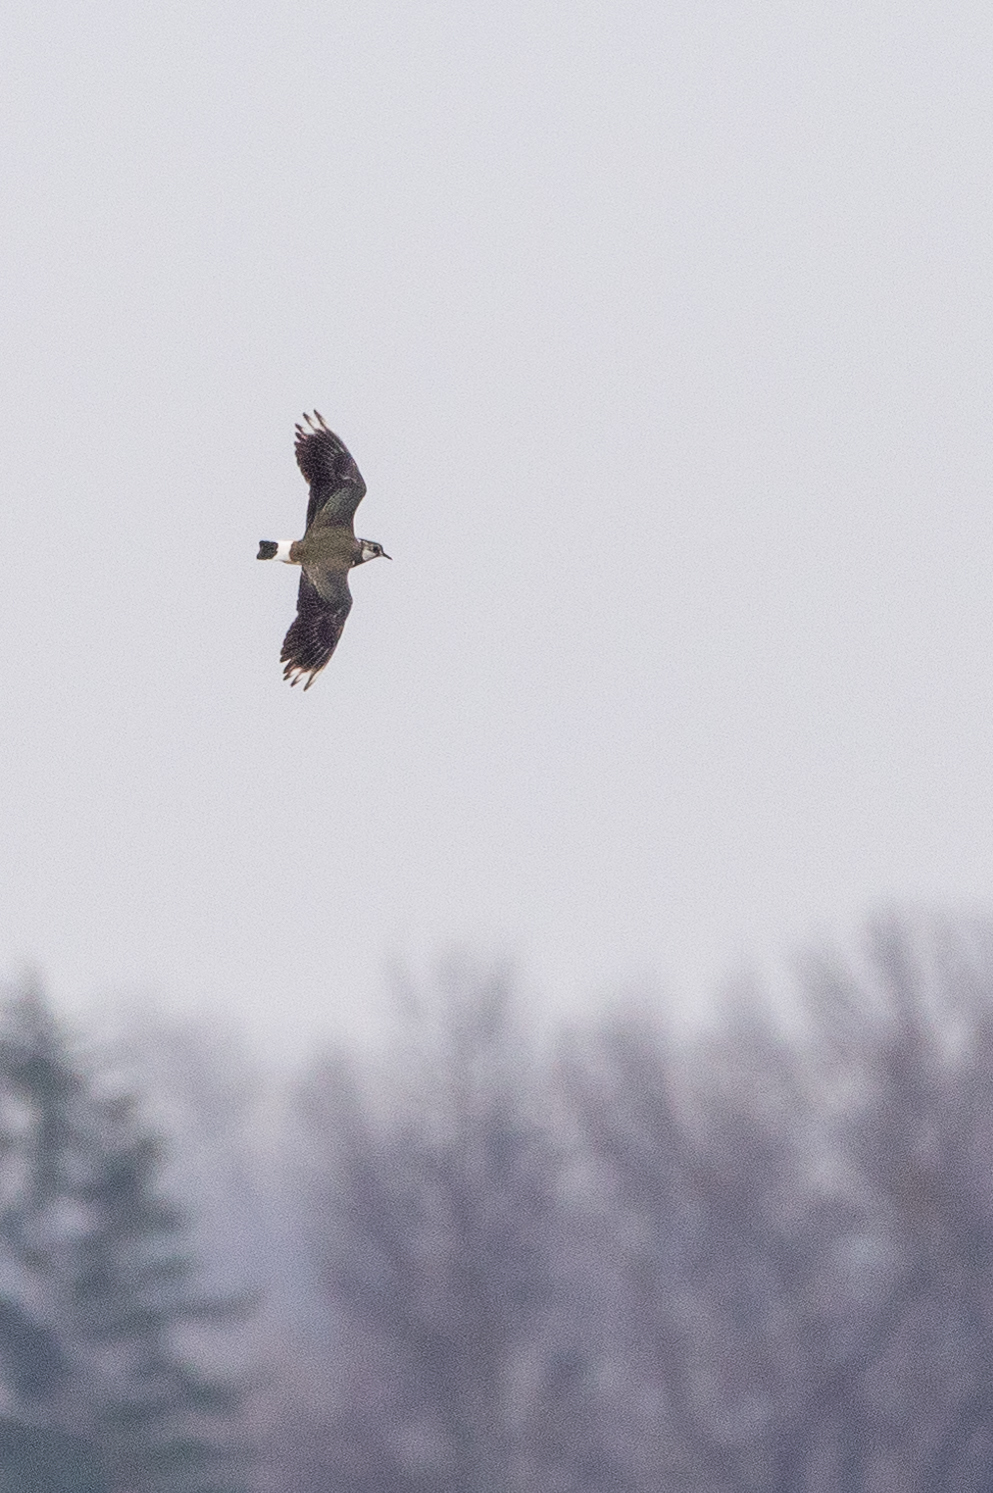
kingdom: Animalia
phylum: Chordata
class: Aves
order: Charadriiformes
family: Charadriidae
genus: Vanellus
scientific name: Vanellus vanellus
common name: Northern lapwing
